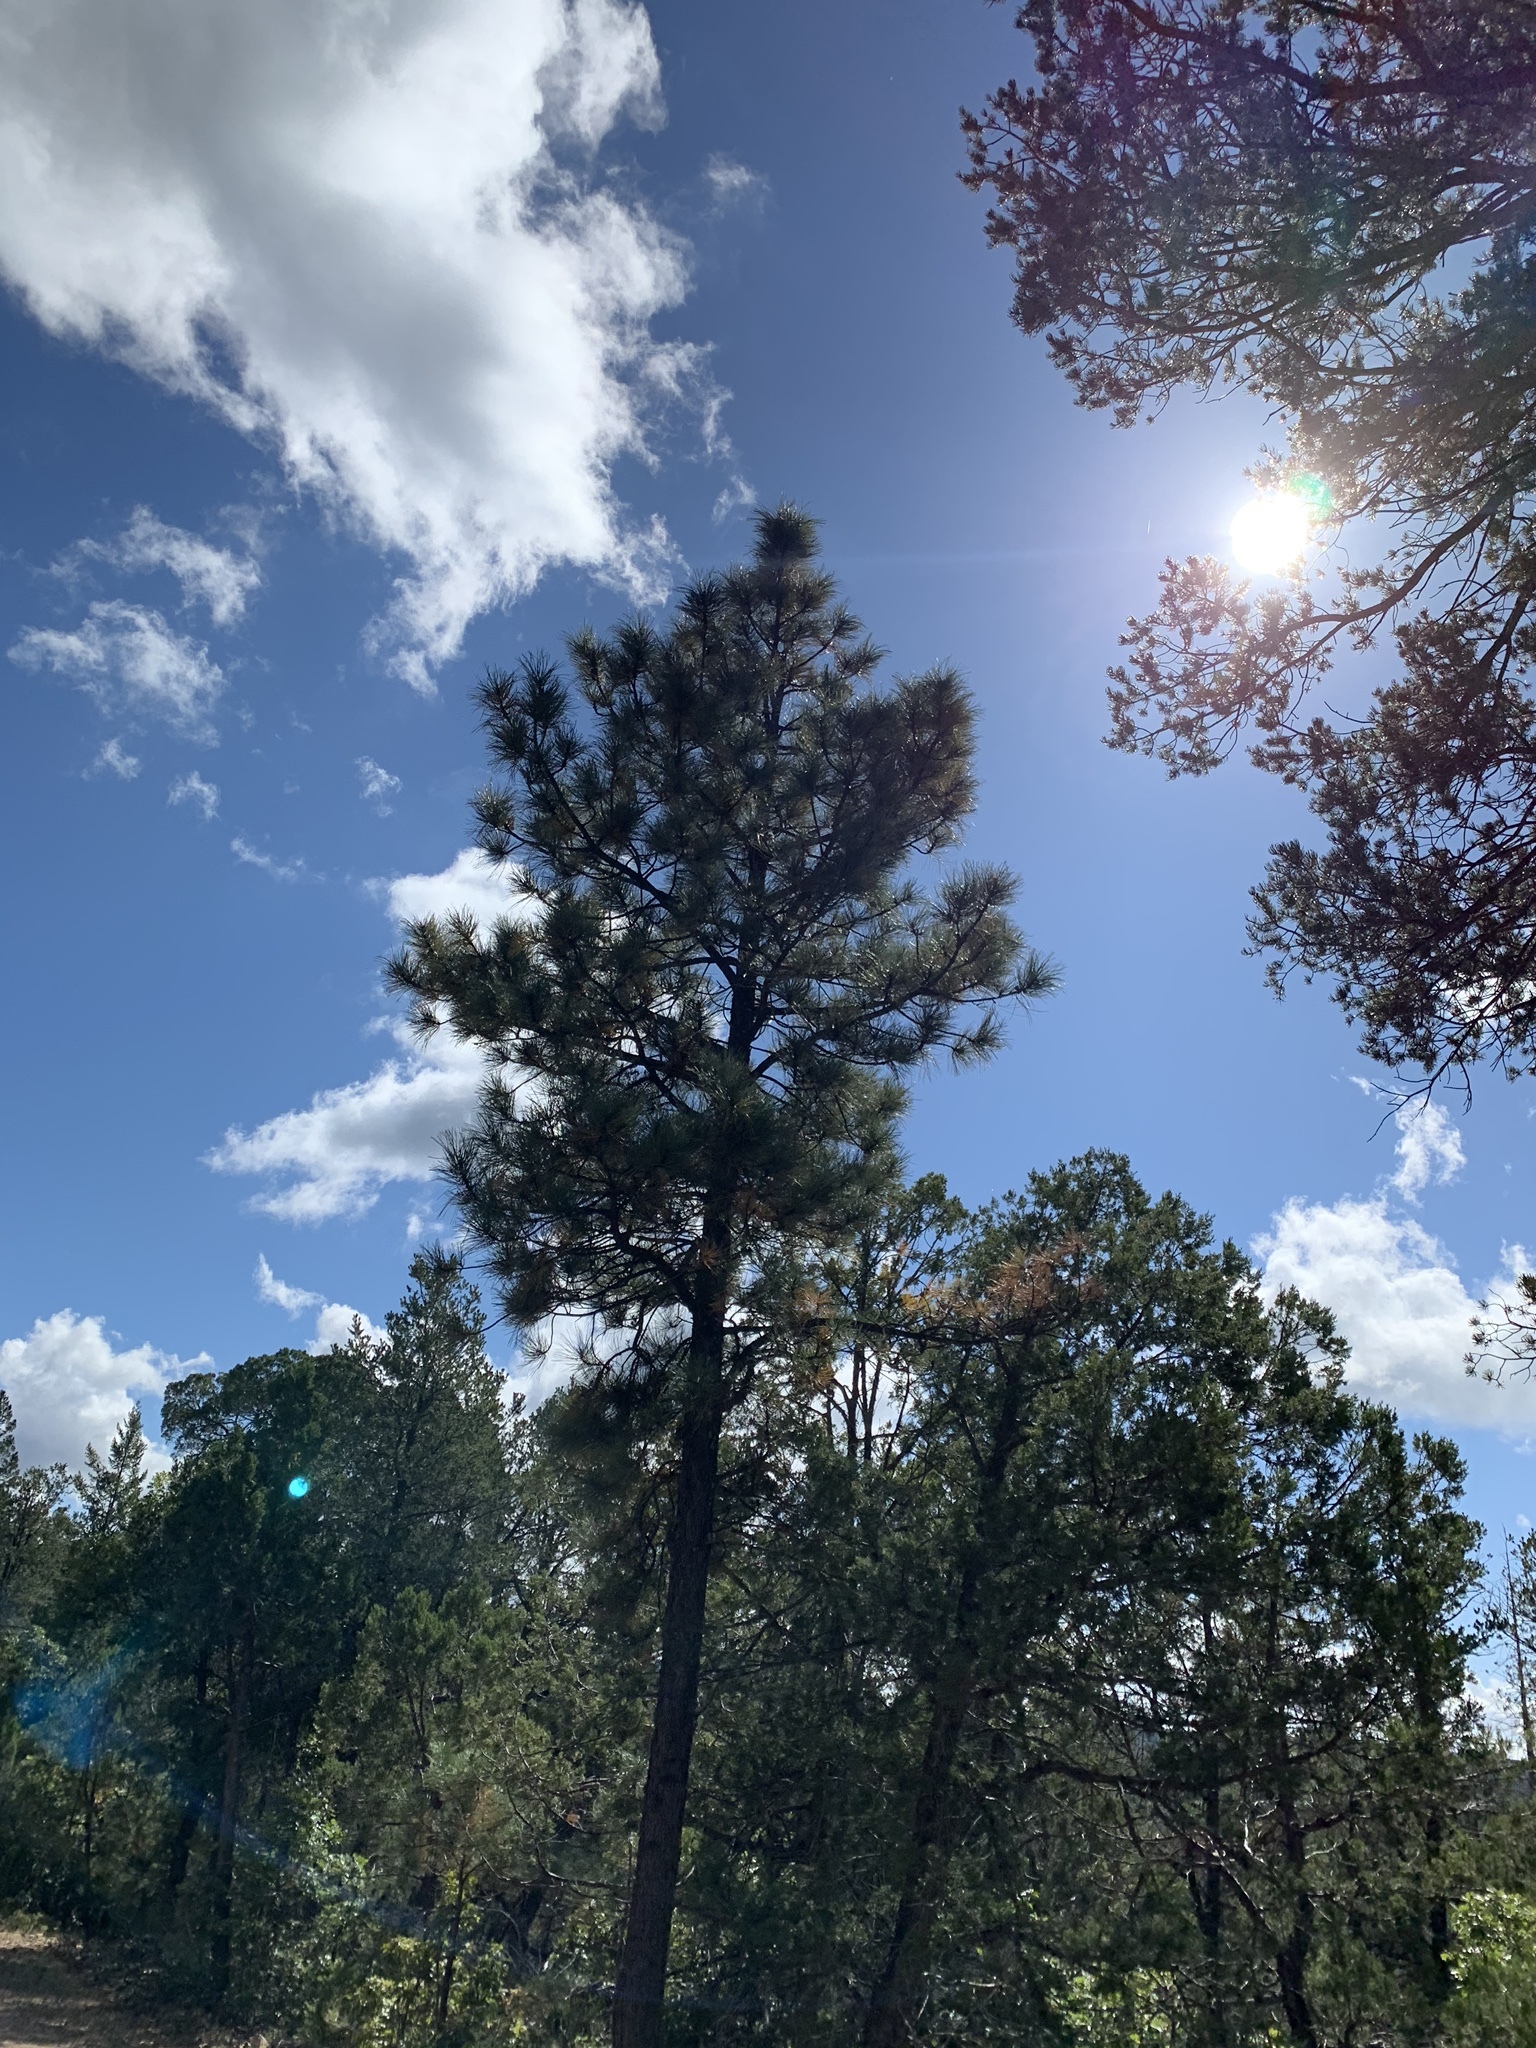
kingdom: Plantae
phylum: Tracheophyta
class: Pinopsida
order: Pinales
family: Pinaceae
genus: Pinus
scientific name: Pinus ponderosa
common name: Western yellow-pine
